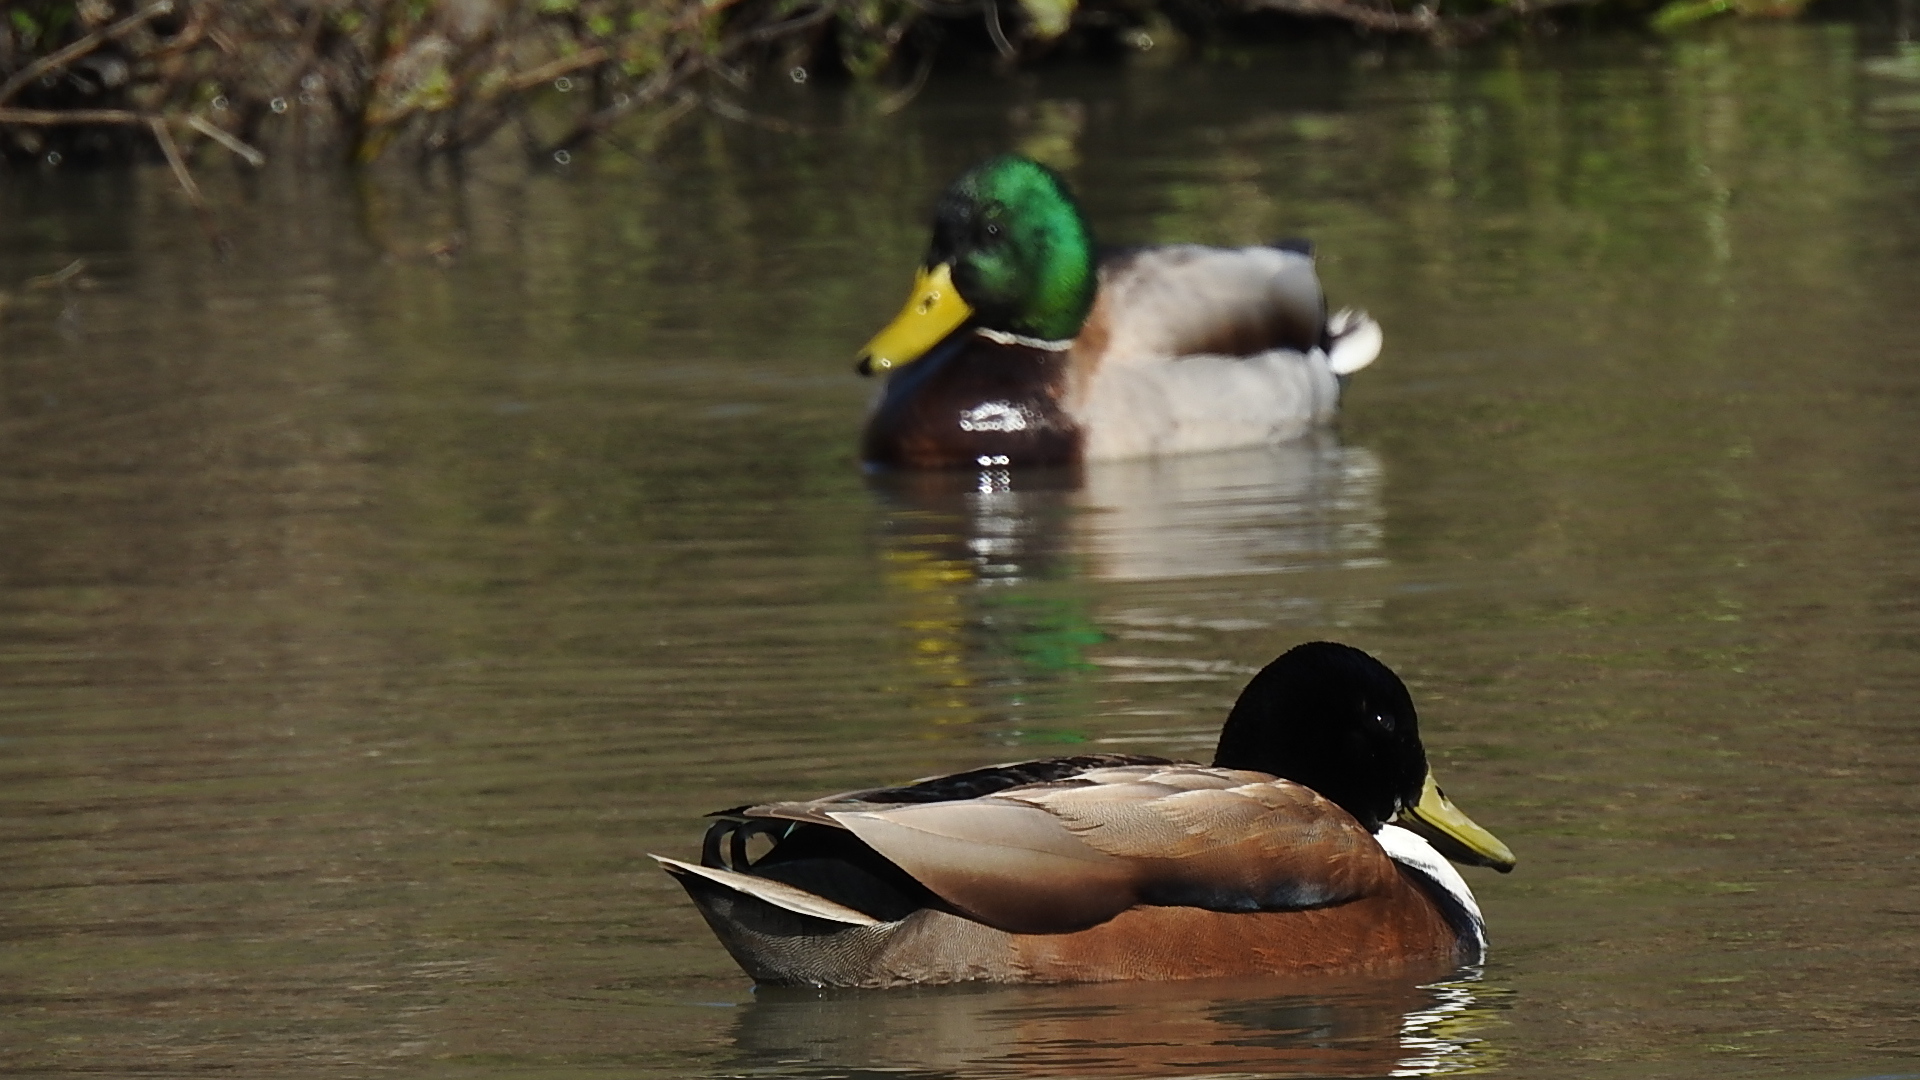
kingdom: Animalia
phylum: Chordata
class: Aves
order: Anseriformes
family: Anatidae
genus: Anas
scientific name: Anas platyrhynchos
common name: Mallard
